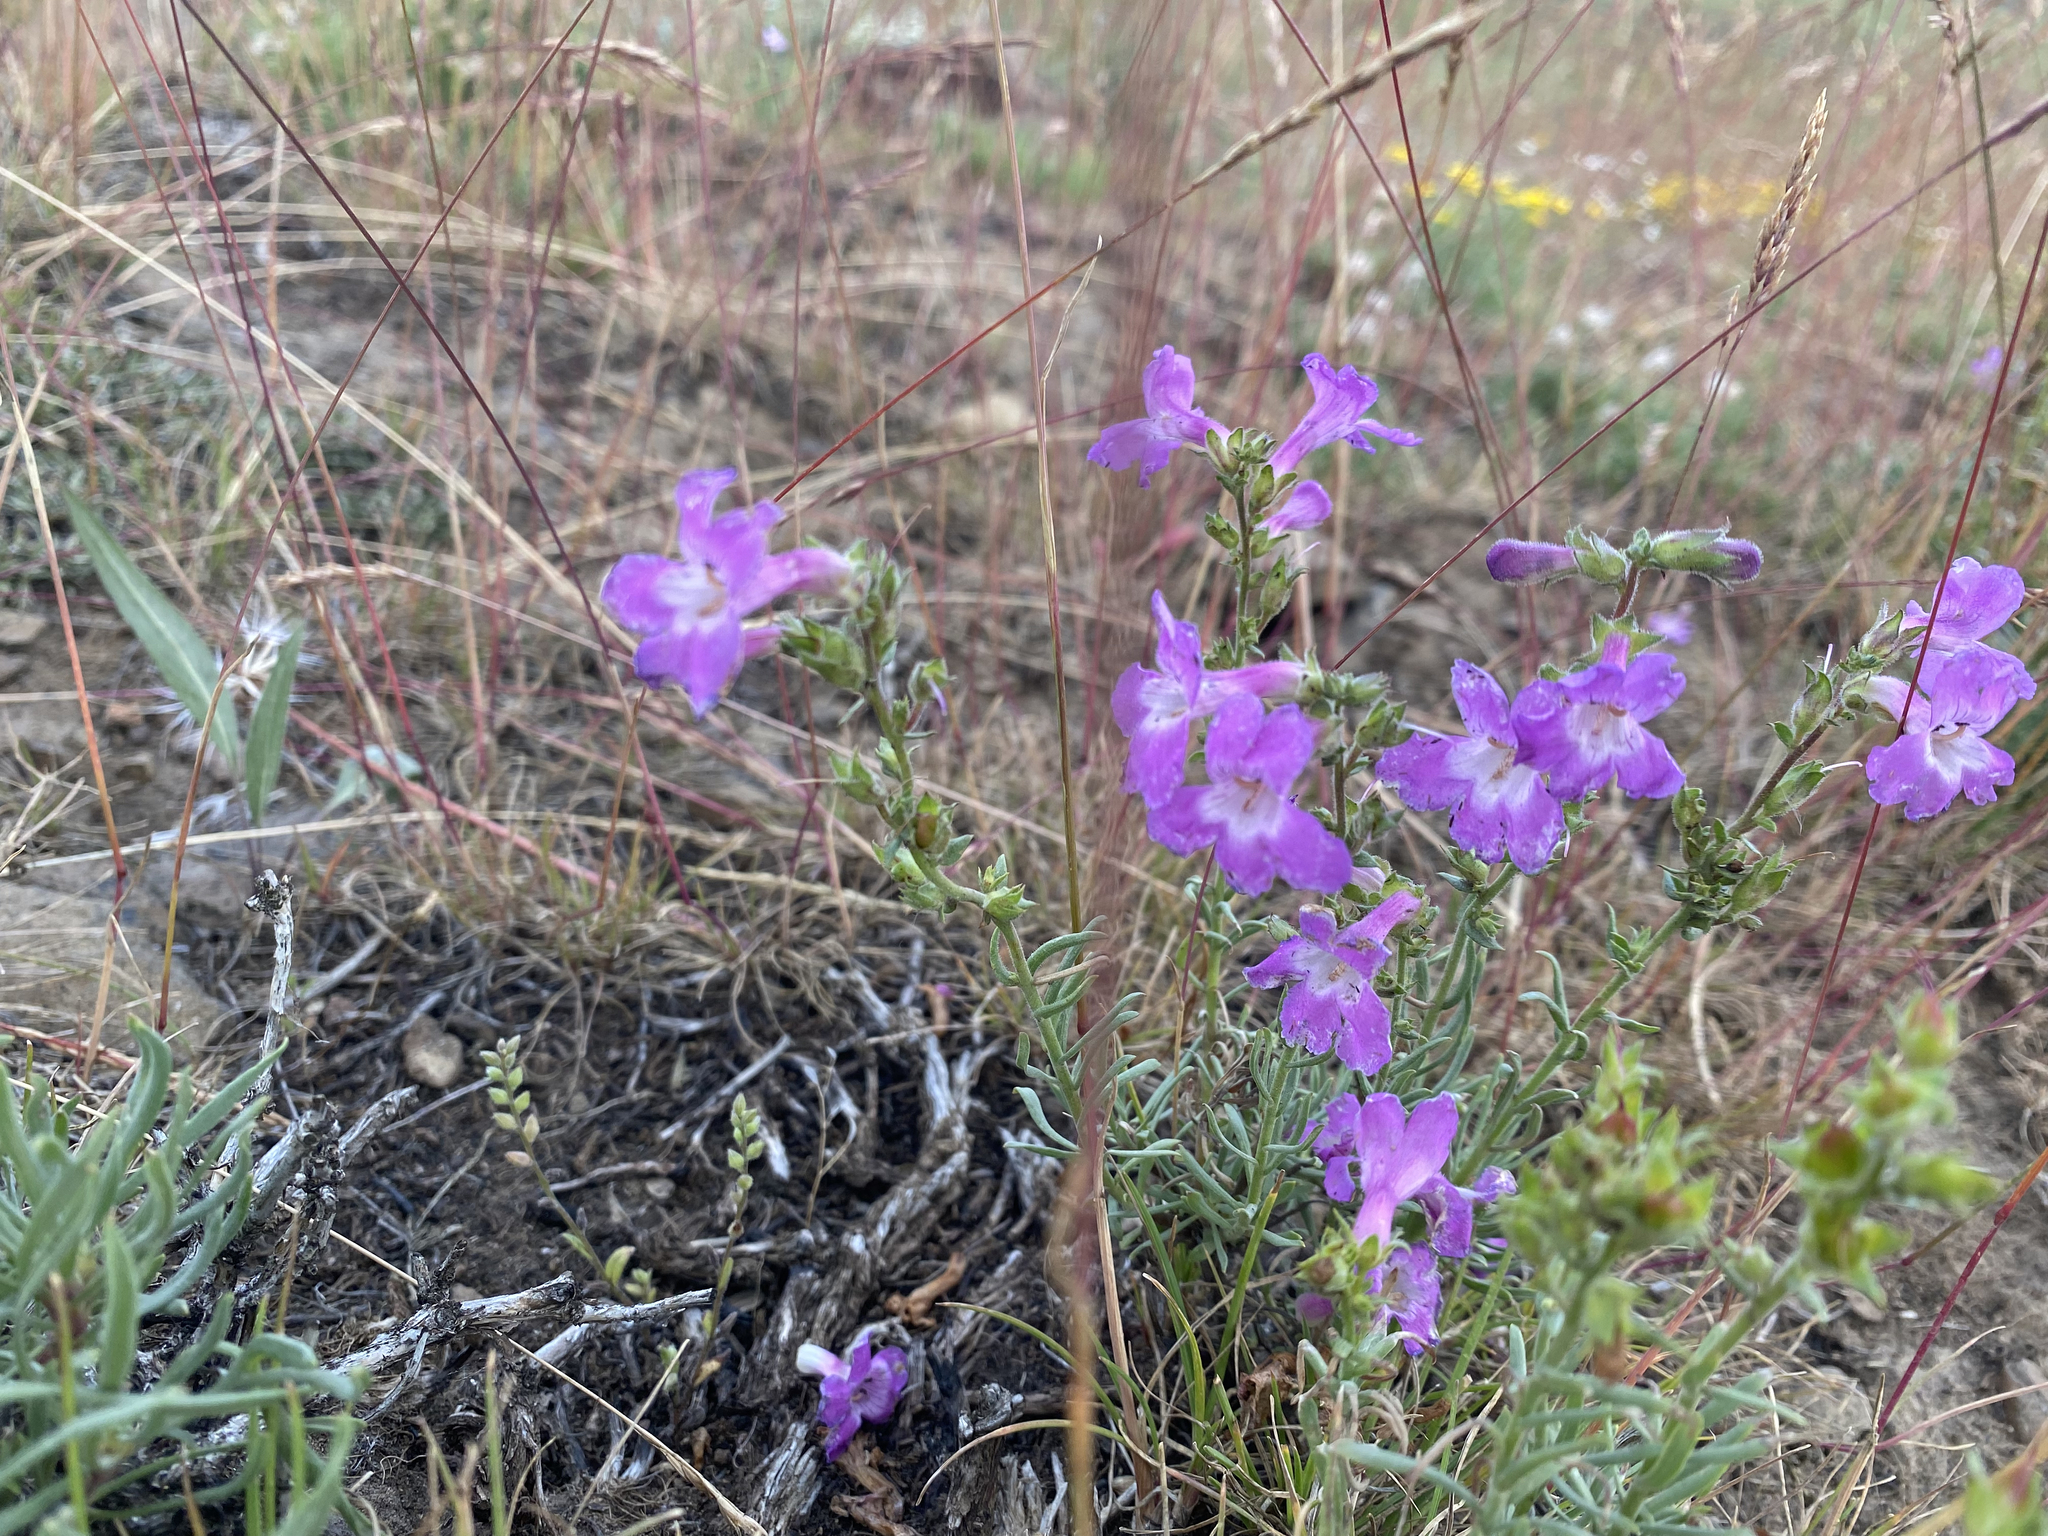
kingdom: Plantae
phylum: Tracheophyta
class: Magnoliopsida
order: Lamiales
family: Plantaginaceae
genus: Penstemon
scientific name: Penstemon gairdneri
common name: Gairdner's penstemon
